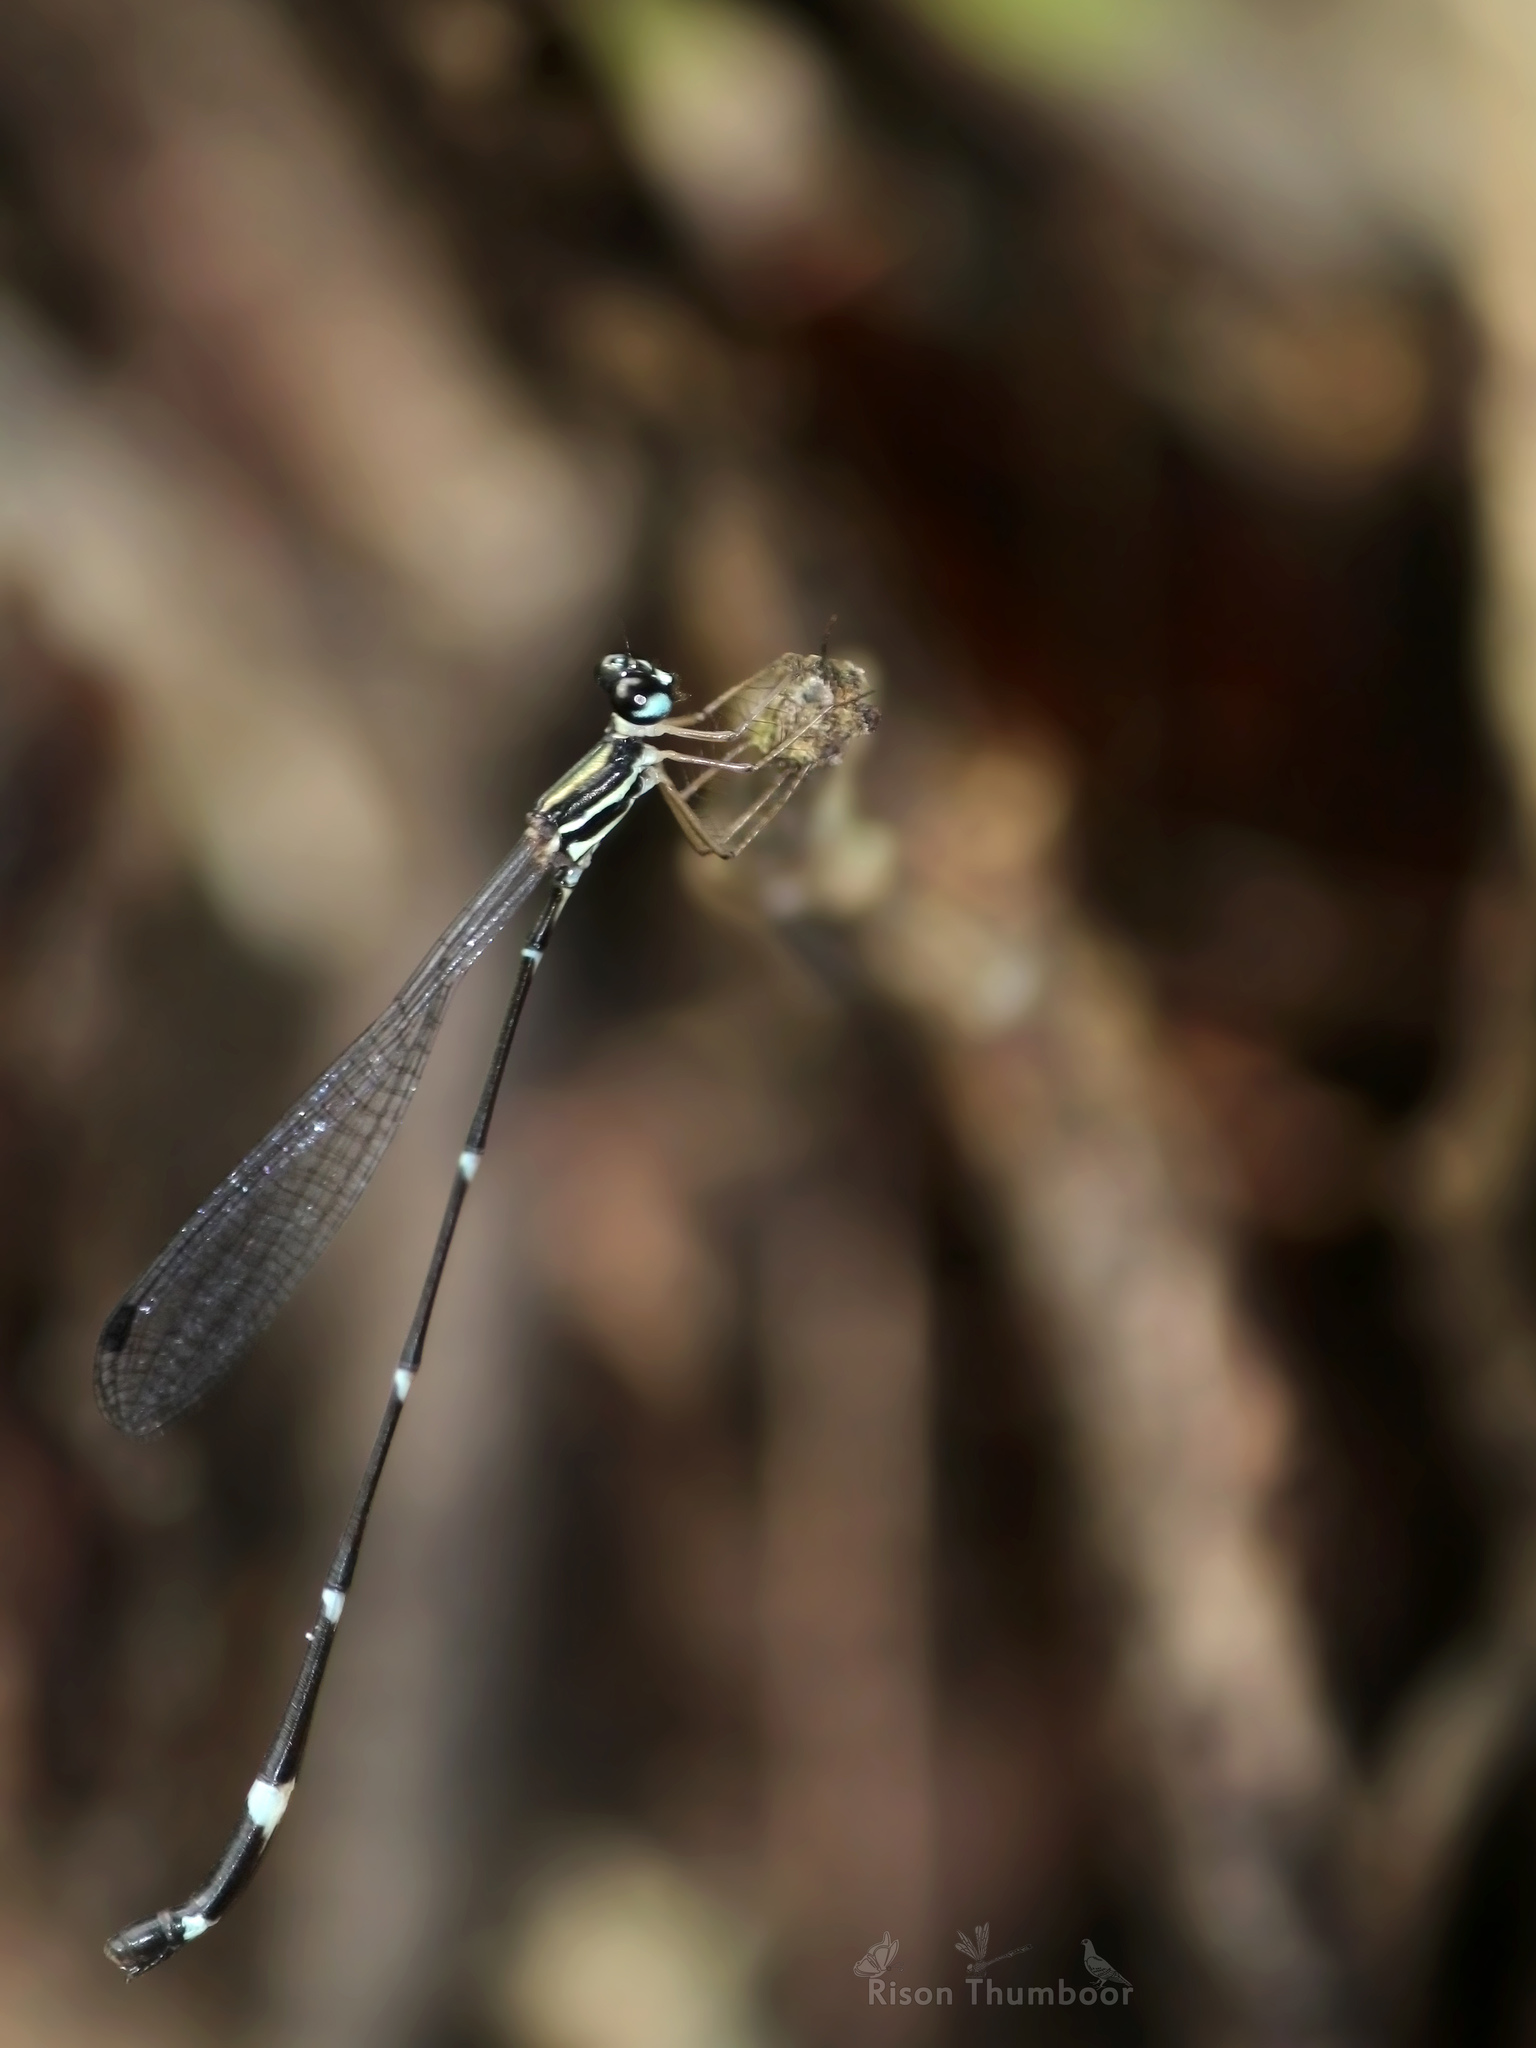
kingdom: Animalia
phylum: Arthropoda
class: Insecta
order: Odonata
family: Platystictidae
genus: Protosticta
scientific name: Protosticta gravelyi
